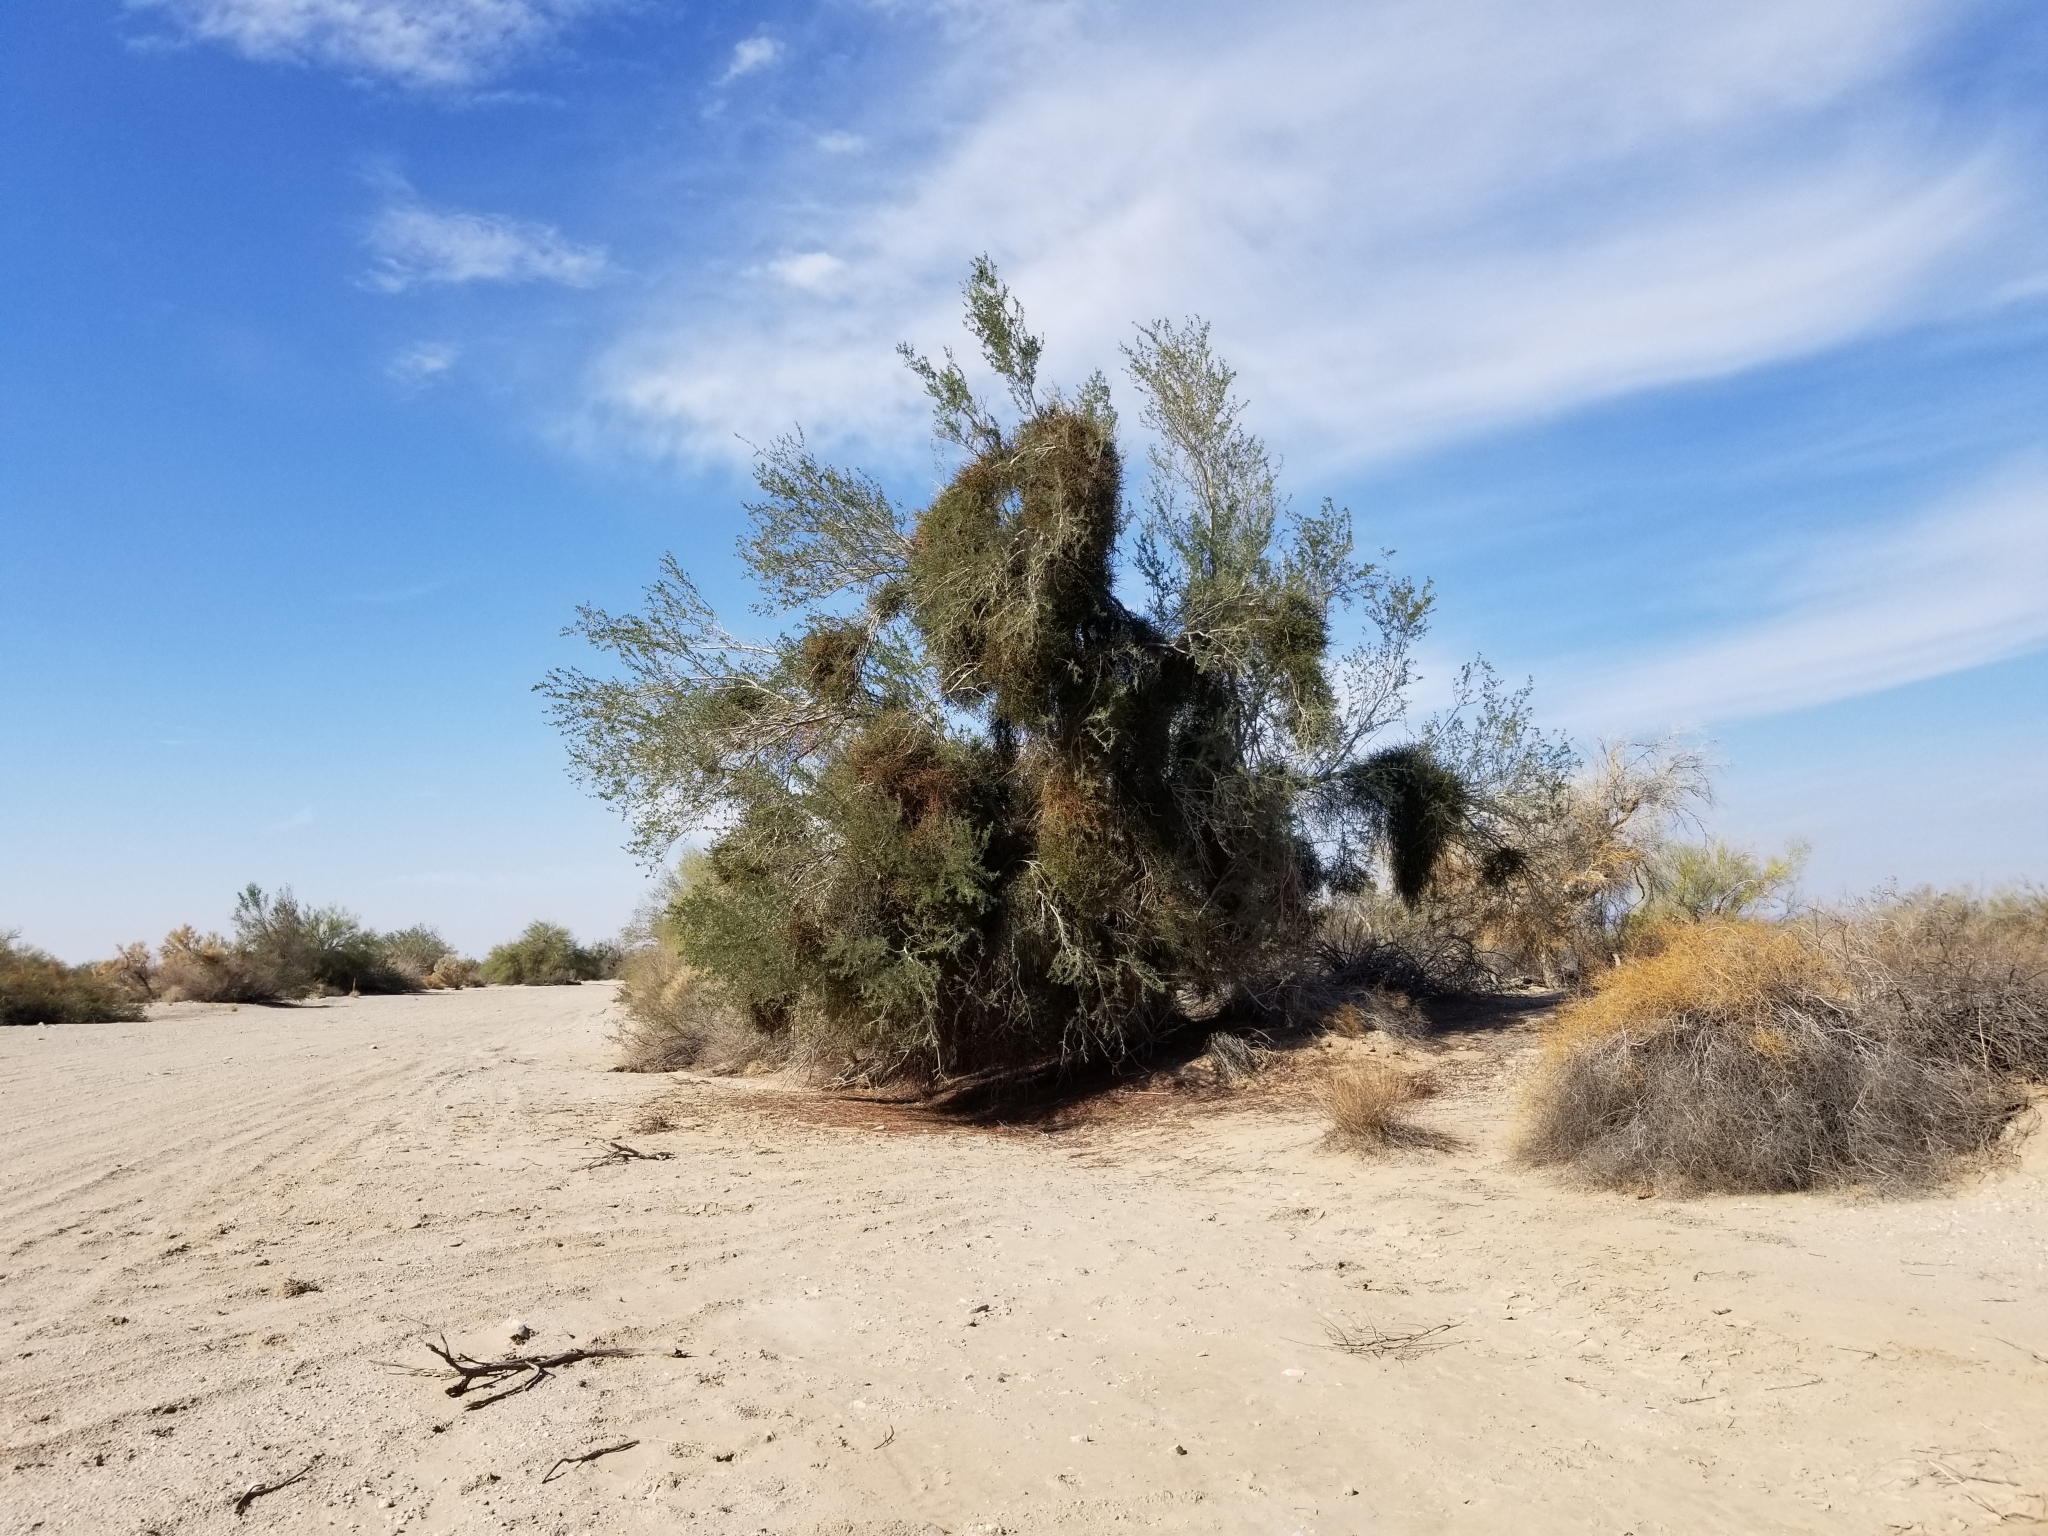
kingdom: Plantae
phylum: Tracheophyta
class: Magnoliopsida
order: Fabales
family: Fabaceae
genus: Olneya
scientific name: Olneya tesota
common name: Desert ironwood
